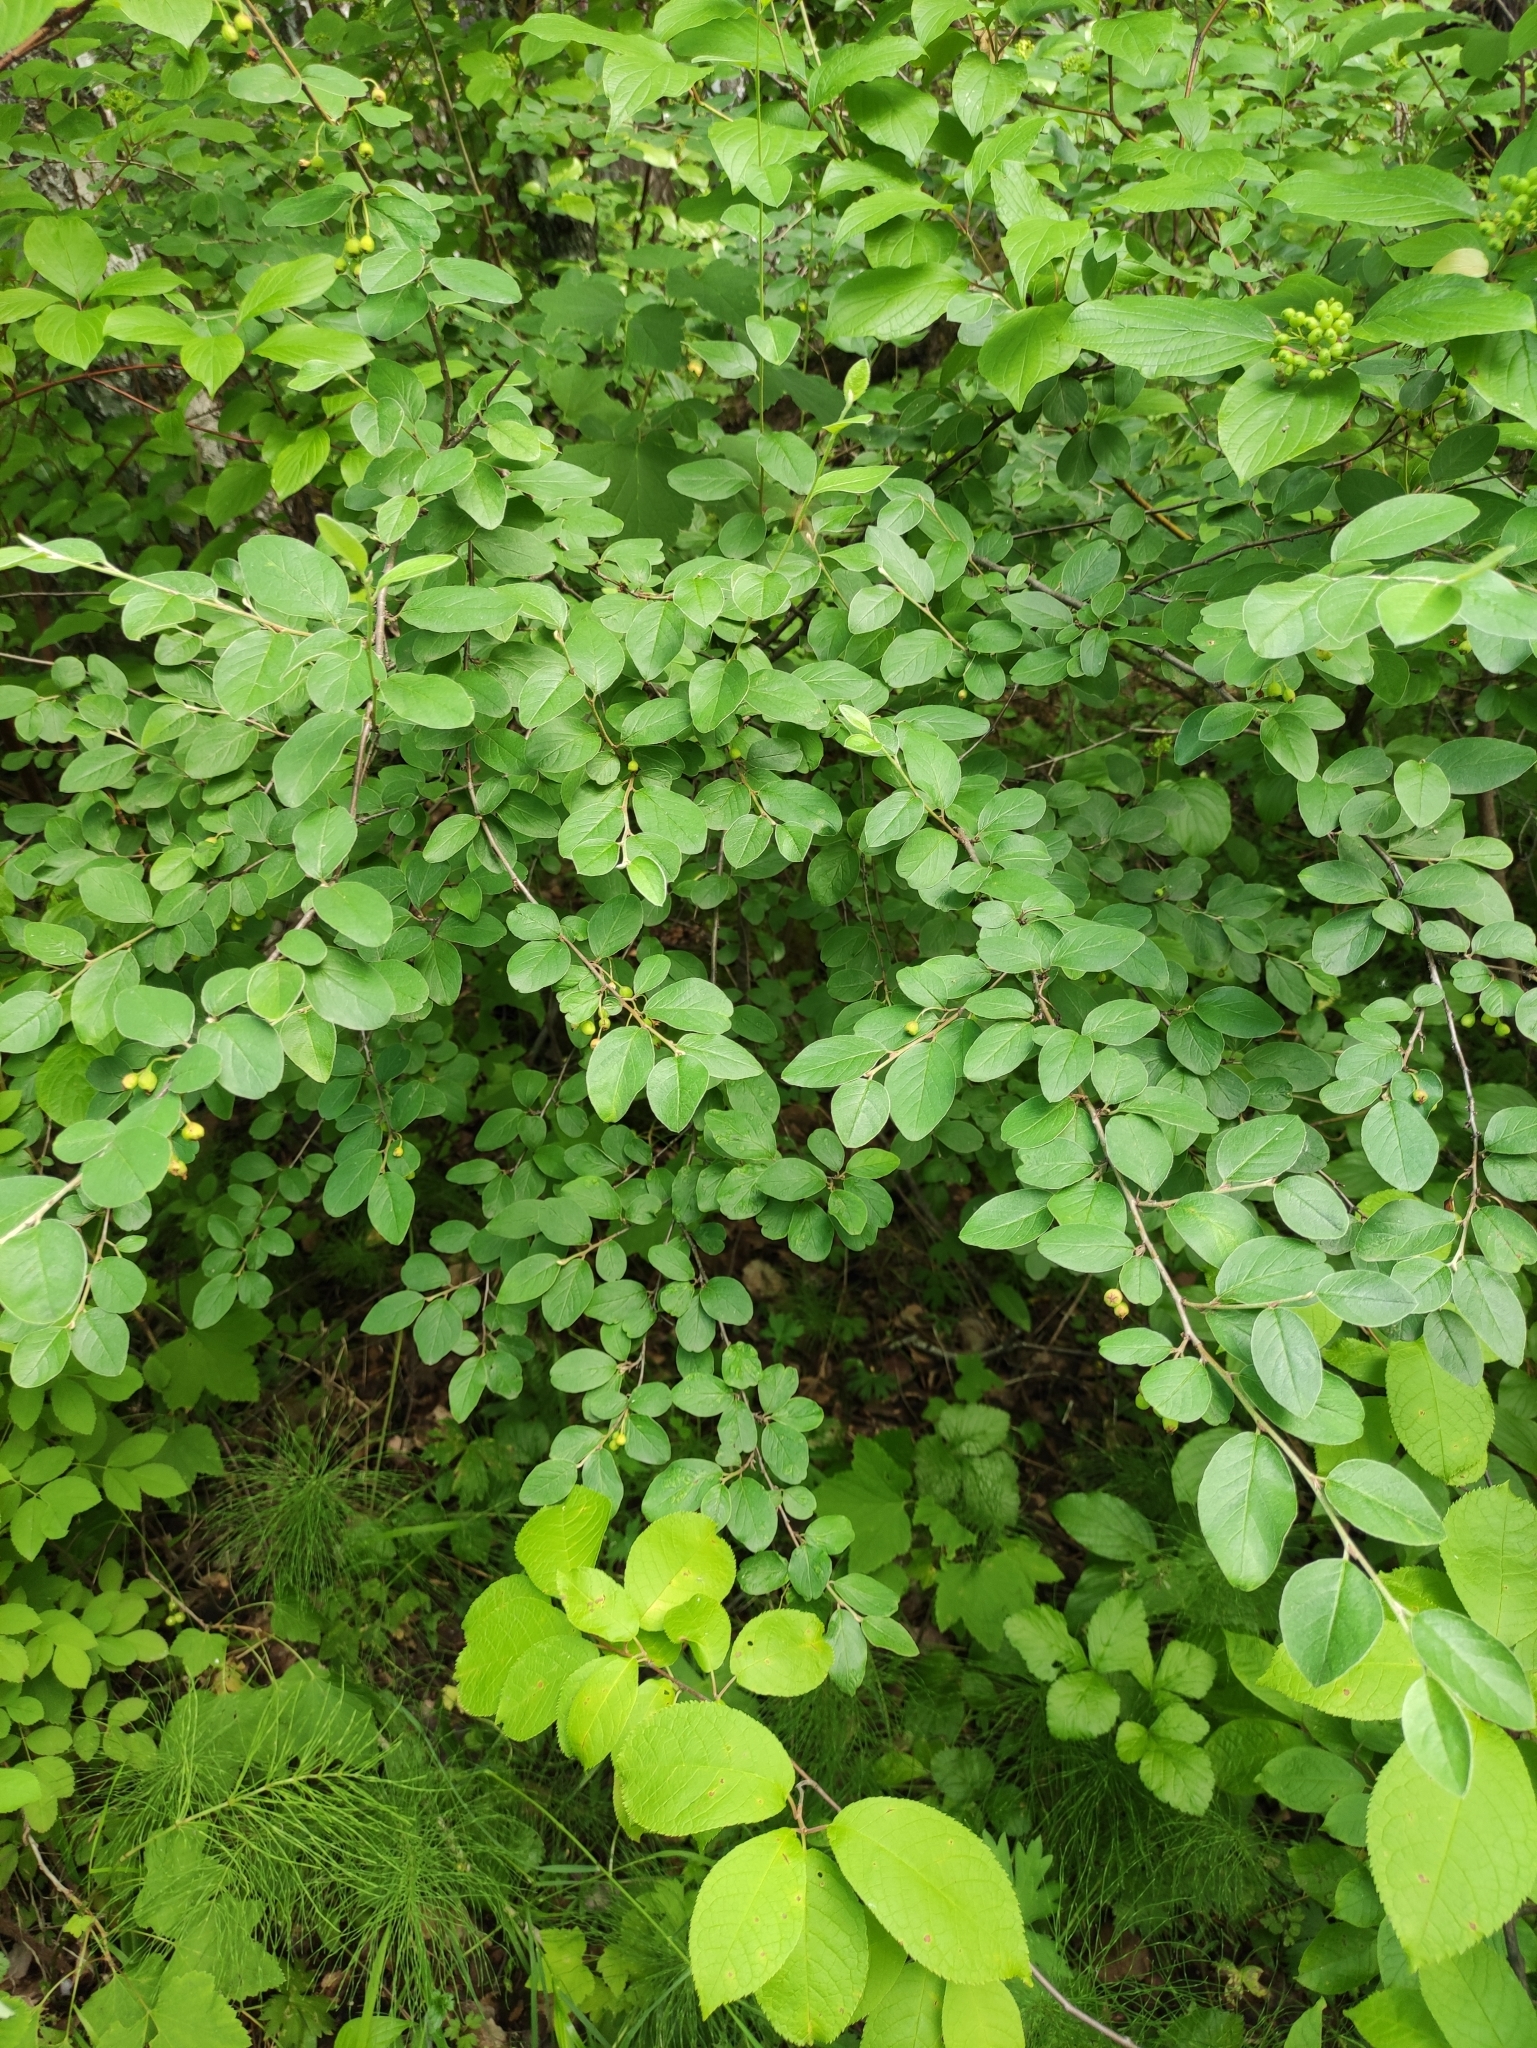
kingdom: Plantae
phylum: Tracheophyta
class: Magnoliopsida
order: Rosales
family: Rosaceae
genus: Cotoneaster
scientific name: Cotoneaster melanocarpus
